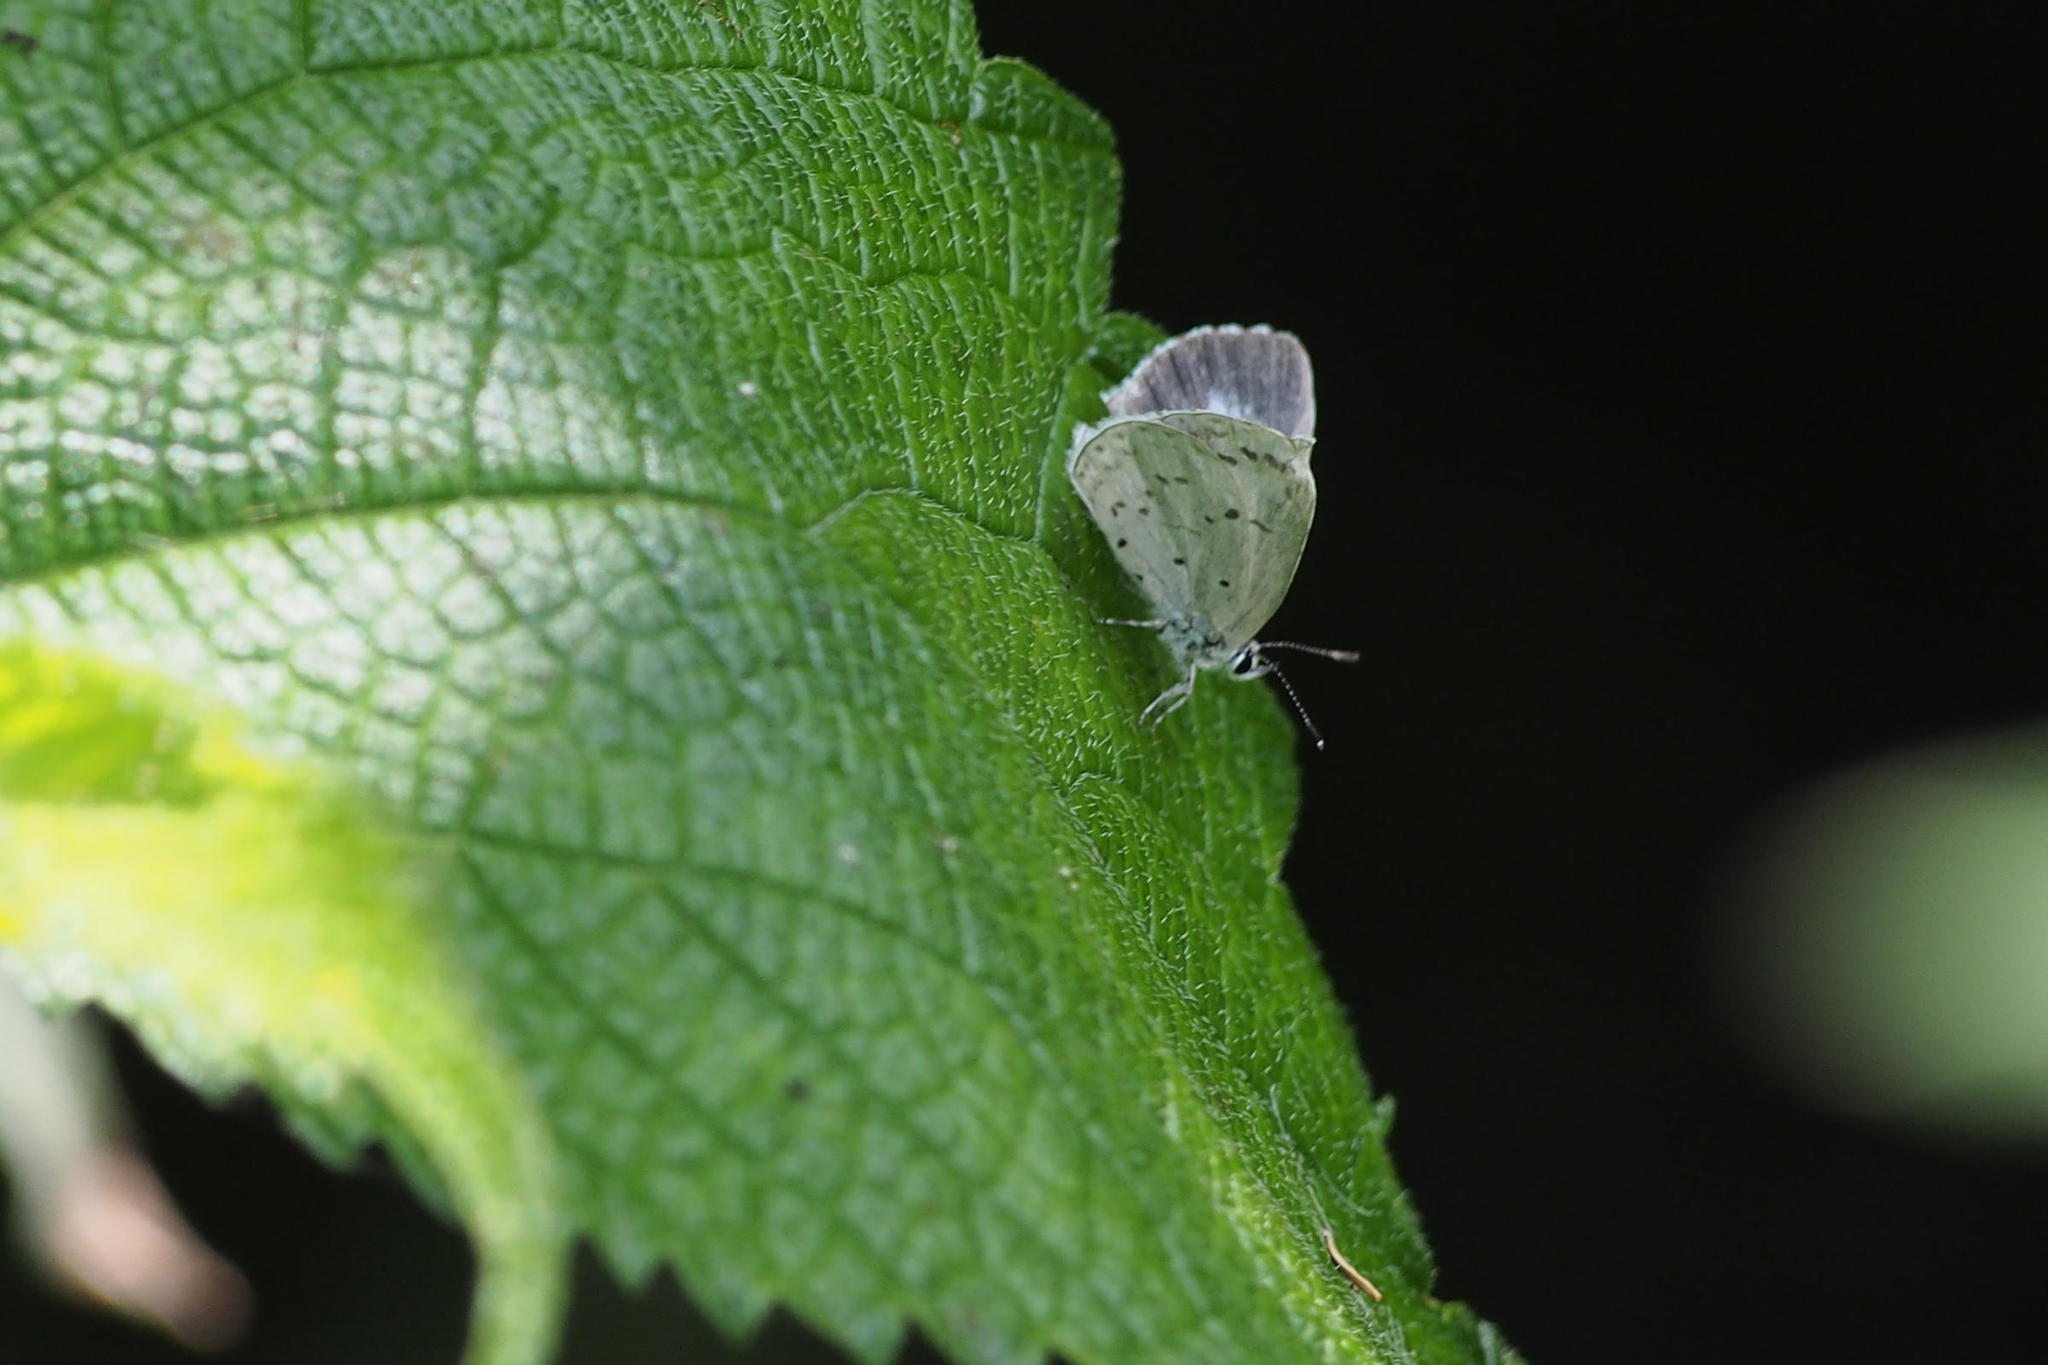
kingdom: Animalia
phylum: Arthropoda
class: Insecta
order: Lepidoptera
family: Lycaenidae
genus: Celastrina
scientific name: Celastrina argiolus
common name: Holly blue
